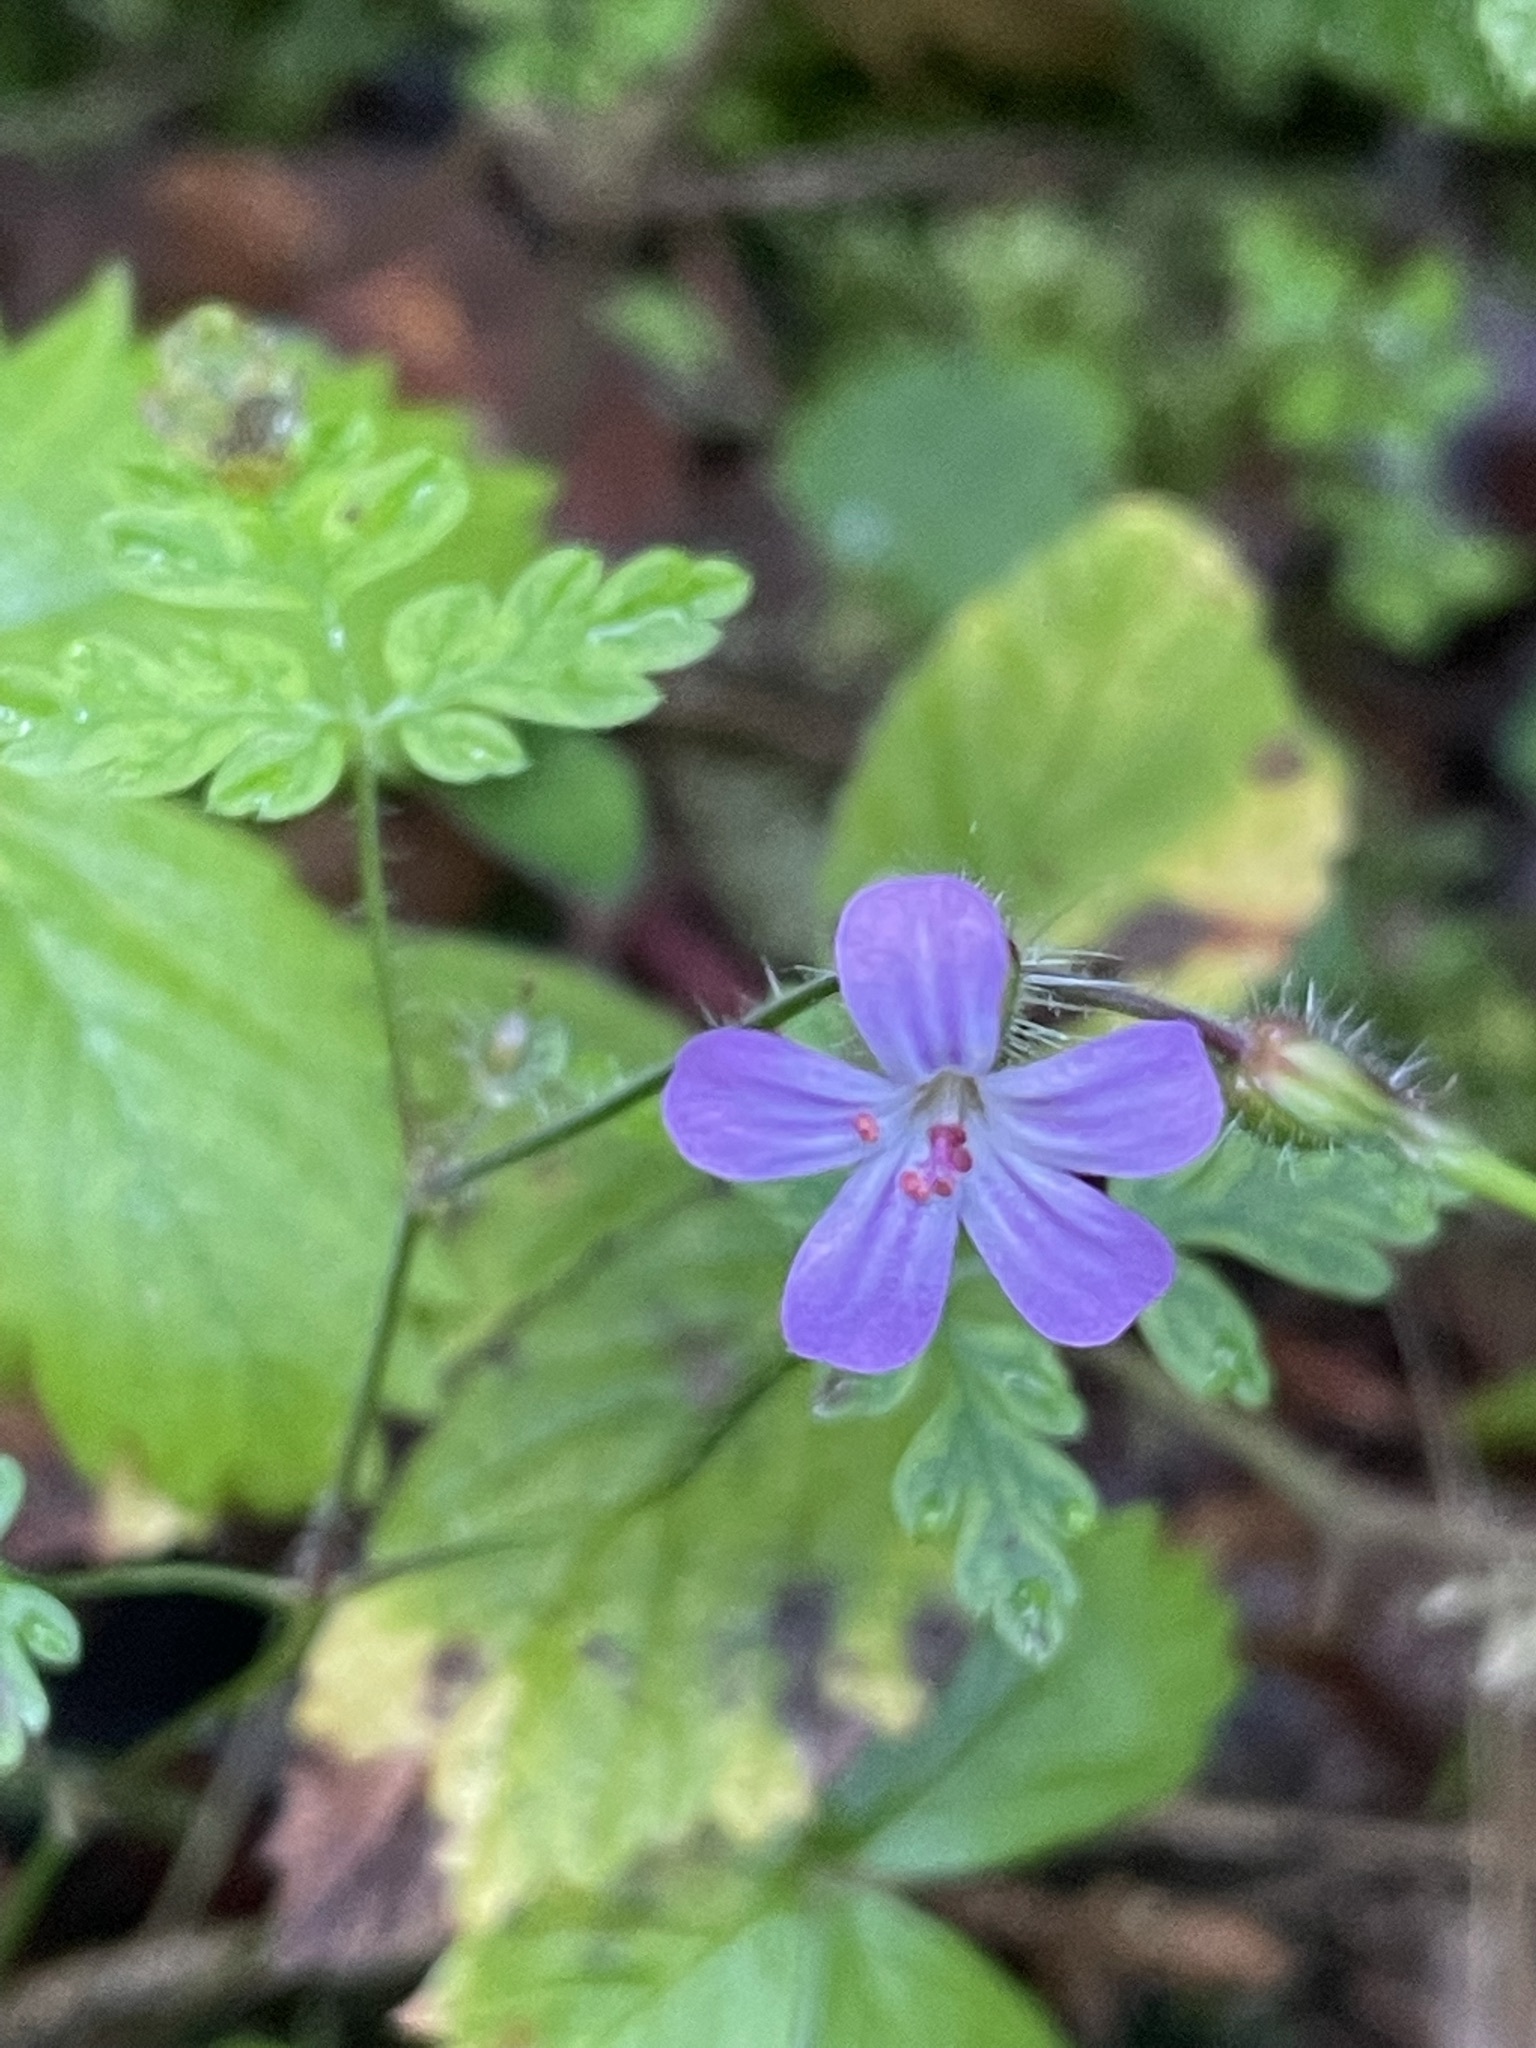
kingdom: Plantae
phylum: Tracheophyta
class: Magnoliopsida
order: Geraniales
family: Geraniaceae
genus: Geranium
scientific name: Geranium robertianum
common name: Herb-robert
